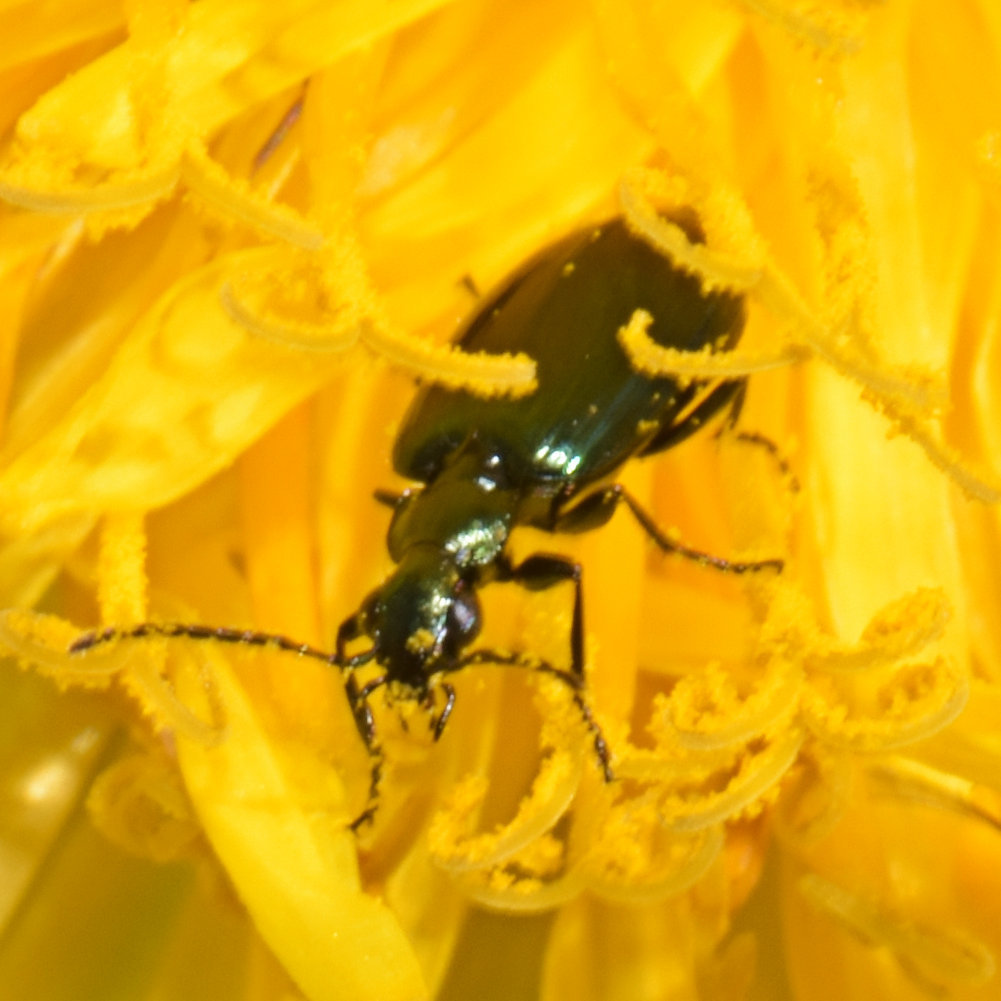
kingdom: Animalia
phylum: Arthropoda
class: Insecta
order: Coleoptera
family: Carabidae
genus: Lebia
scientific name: Lebia viridis
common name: Flower lebia beetle
